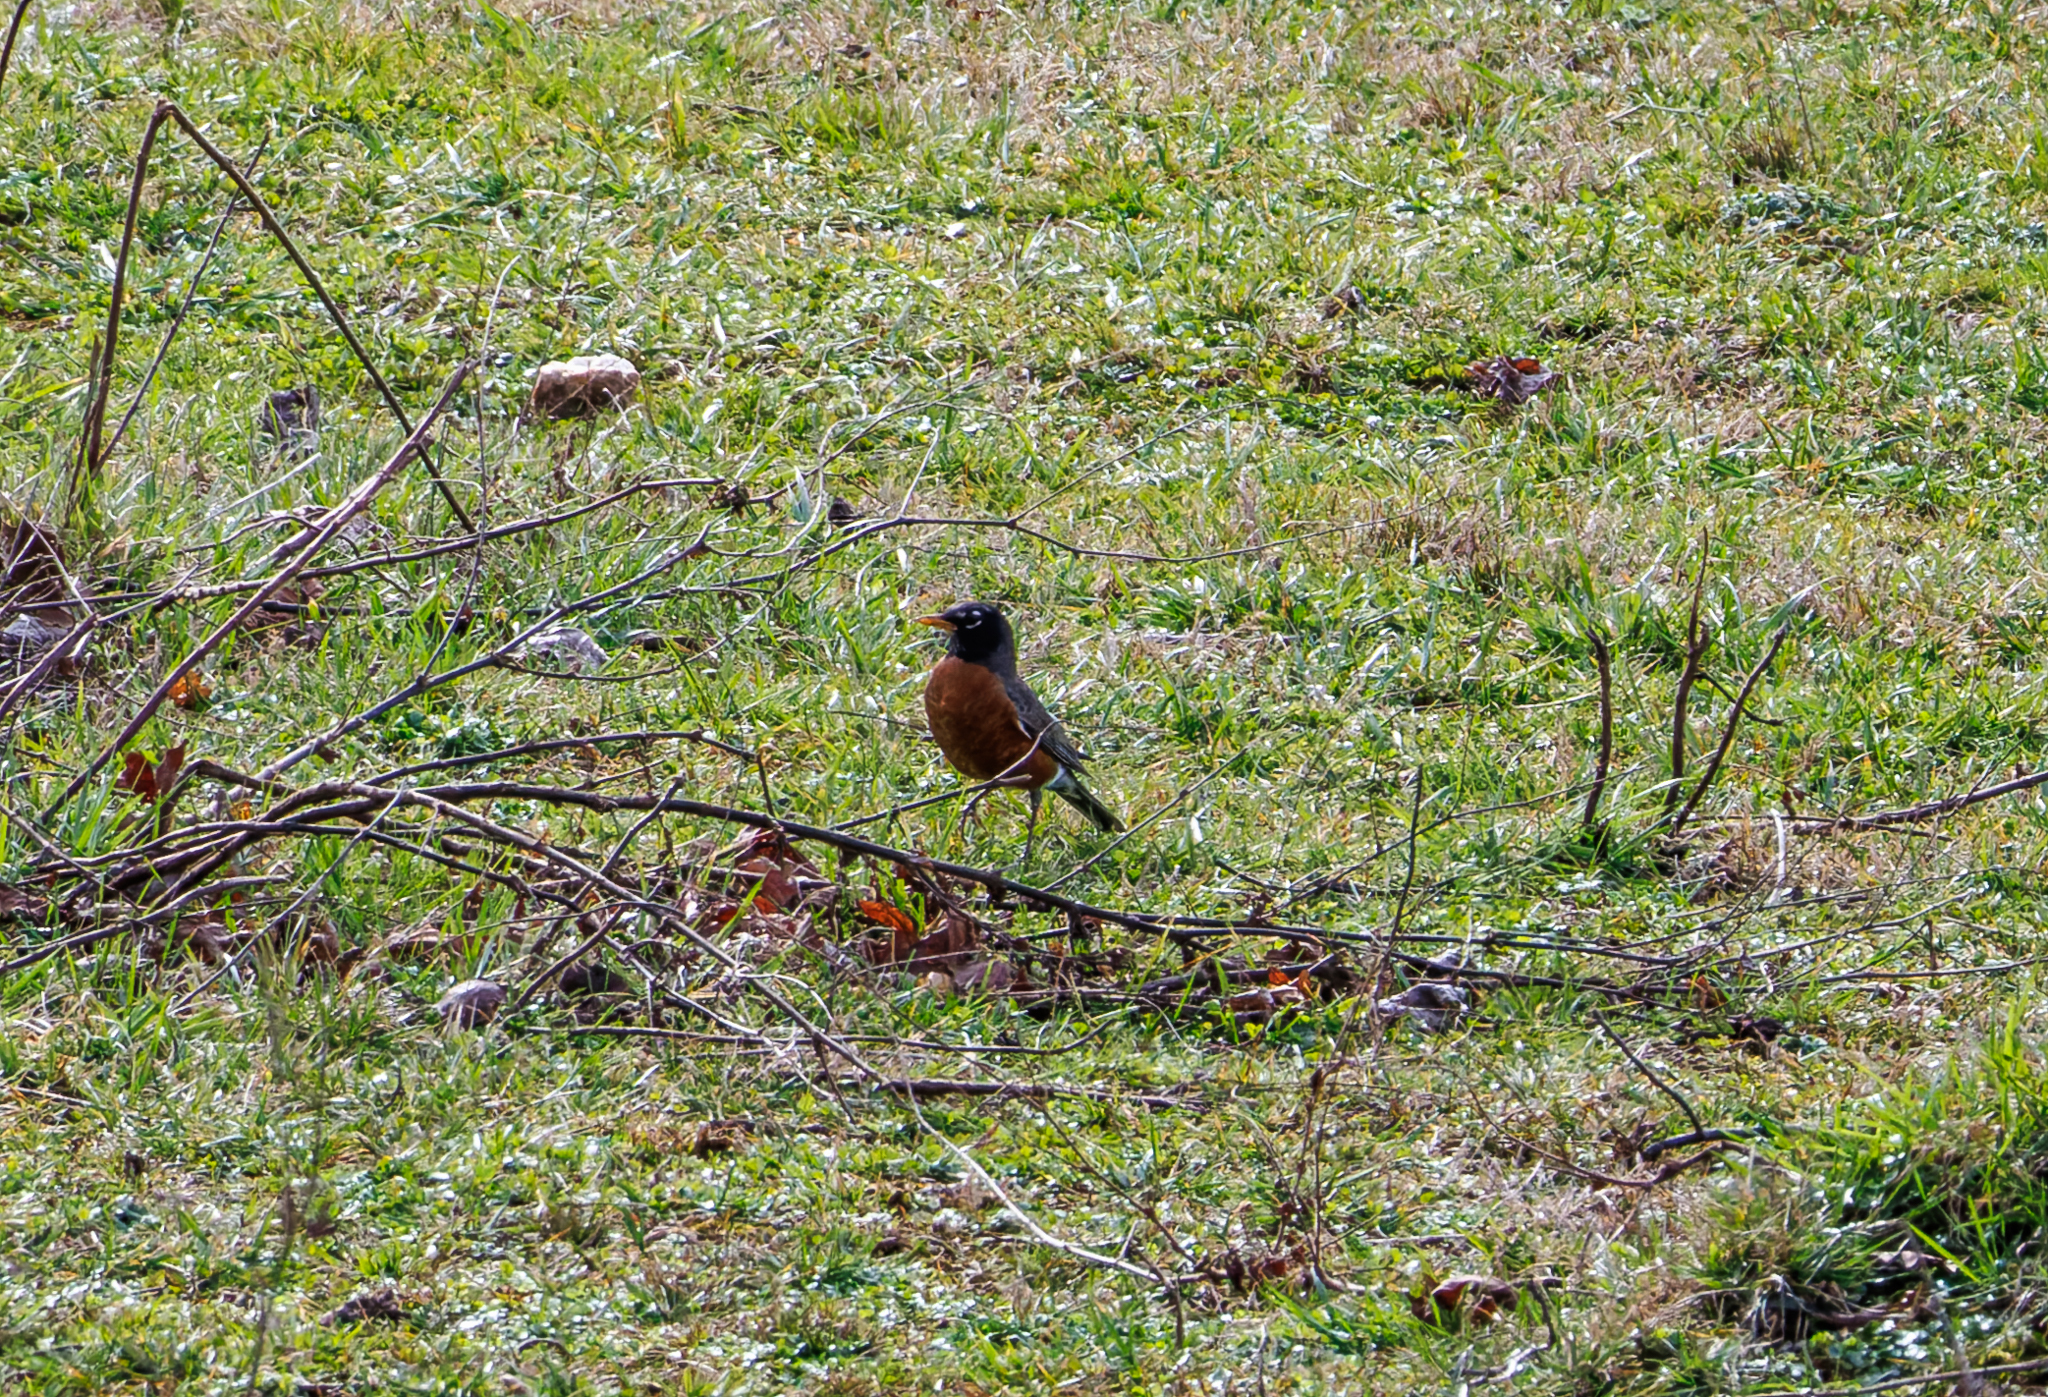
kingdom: Animalia
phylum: Chordata
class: Aves
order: Passeriformes
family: Turdidae
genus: Turdus
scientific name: Turdus migratorius
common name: American robin
